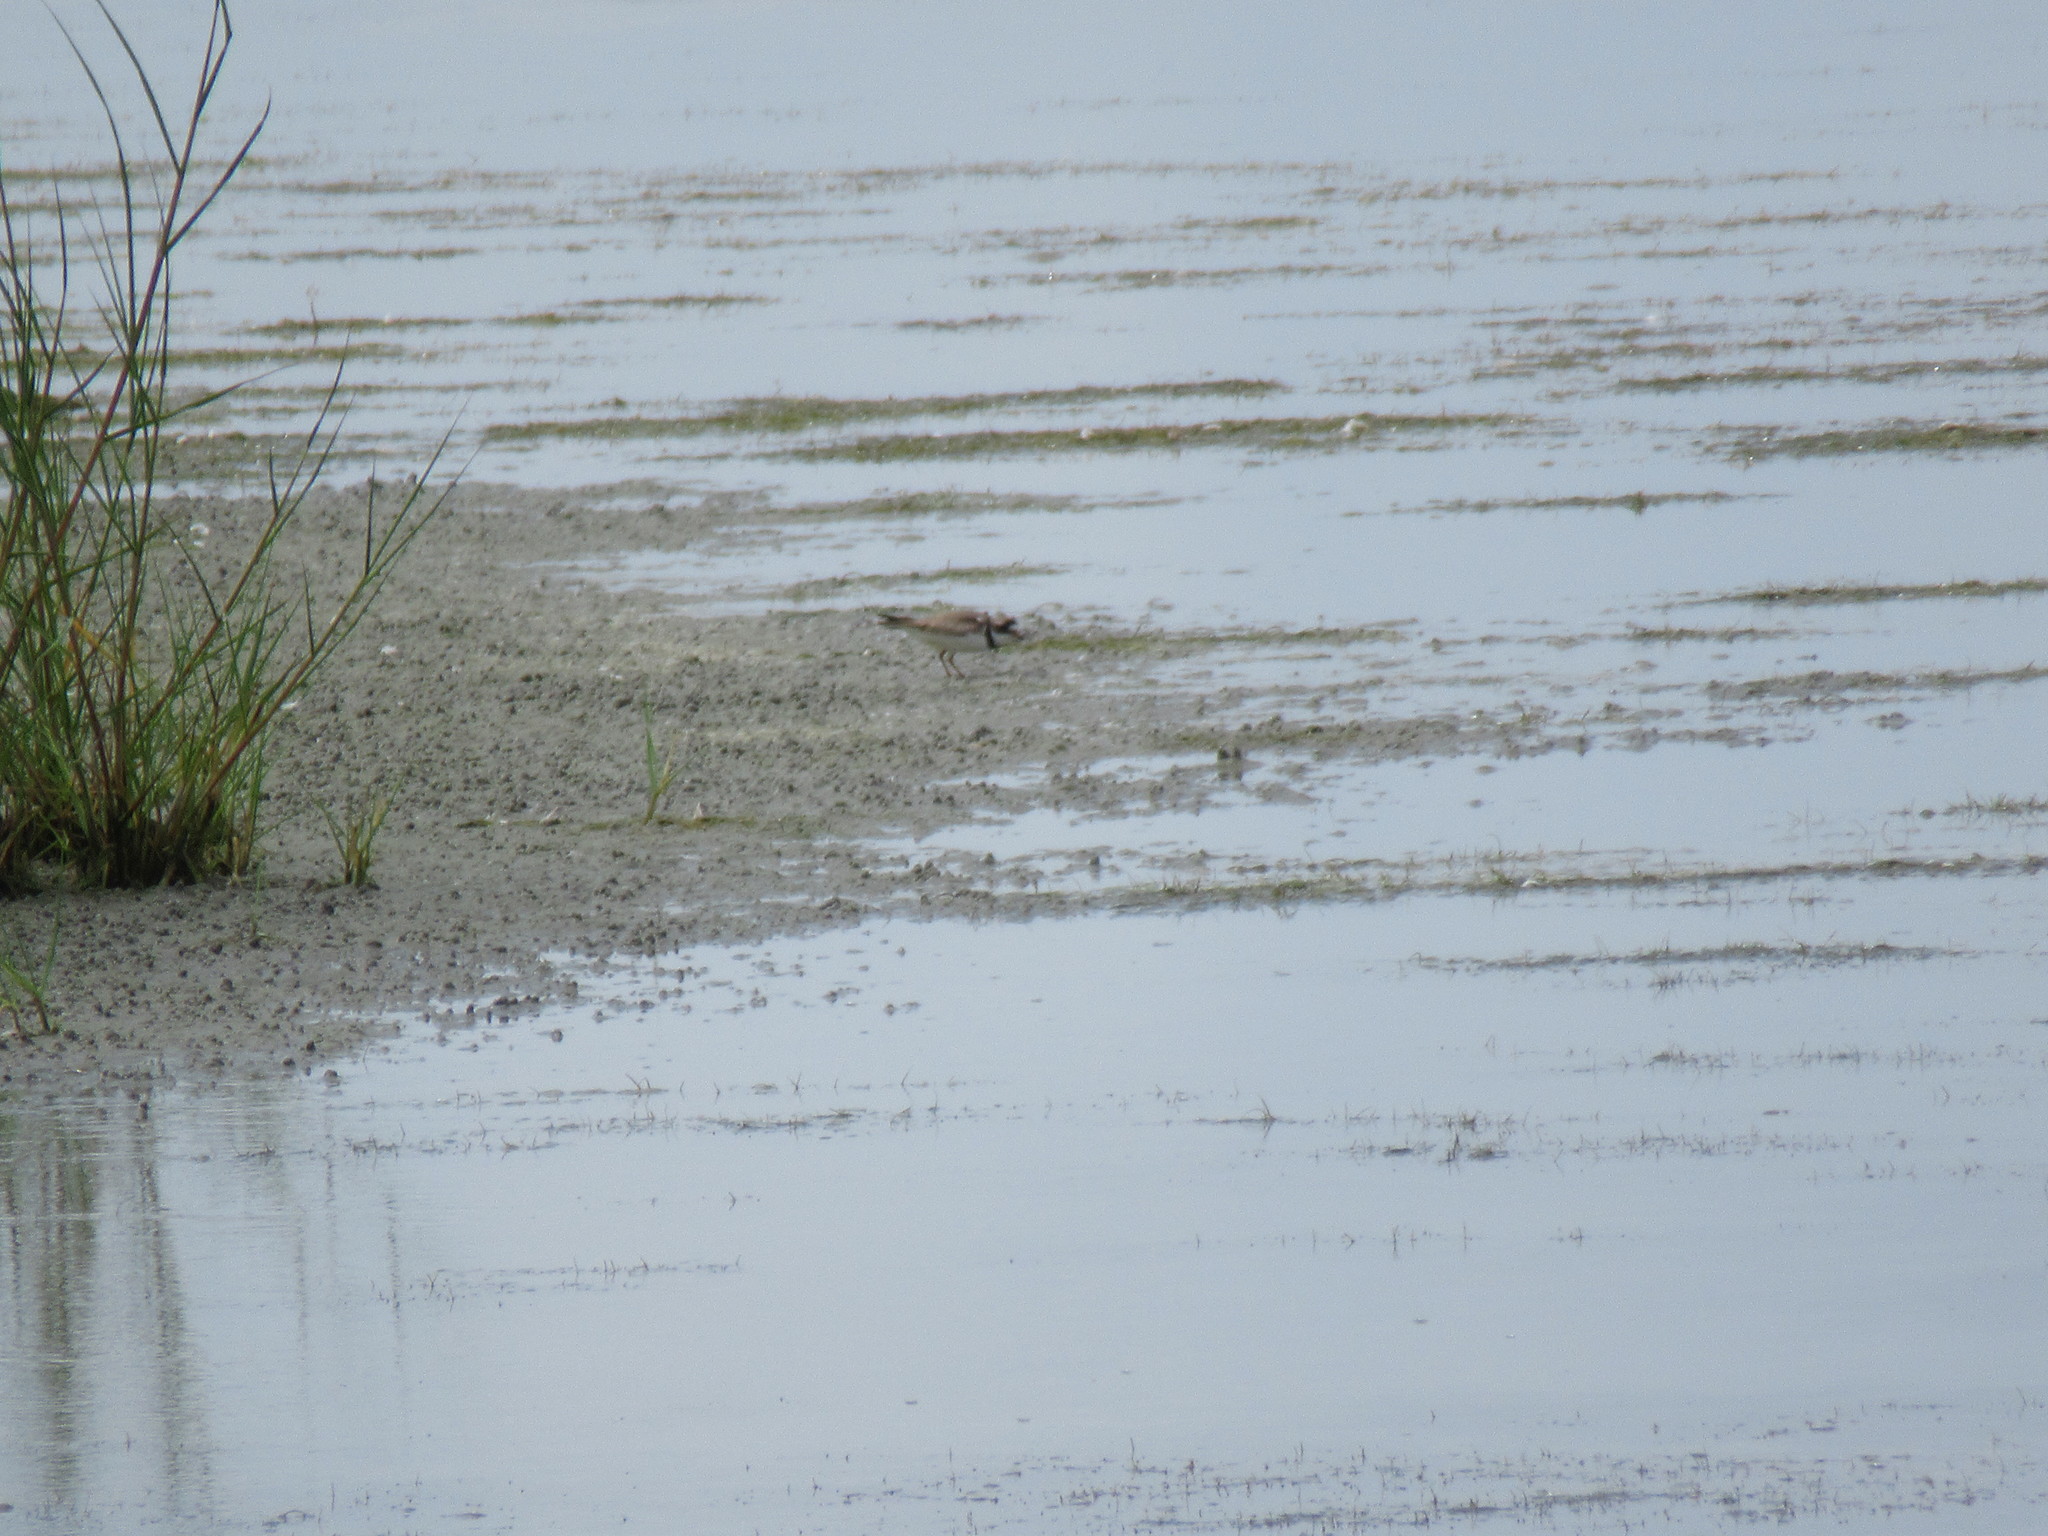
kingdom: Animalia
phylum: Chordata
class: Aves
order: Charadriiformes
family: Charadriidae
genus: Charadrius
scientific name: Charadrius semipalmatus
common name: Semipalmated plover
